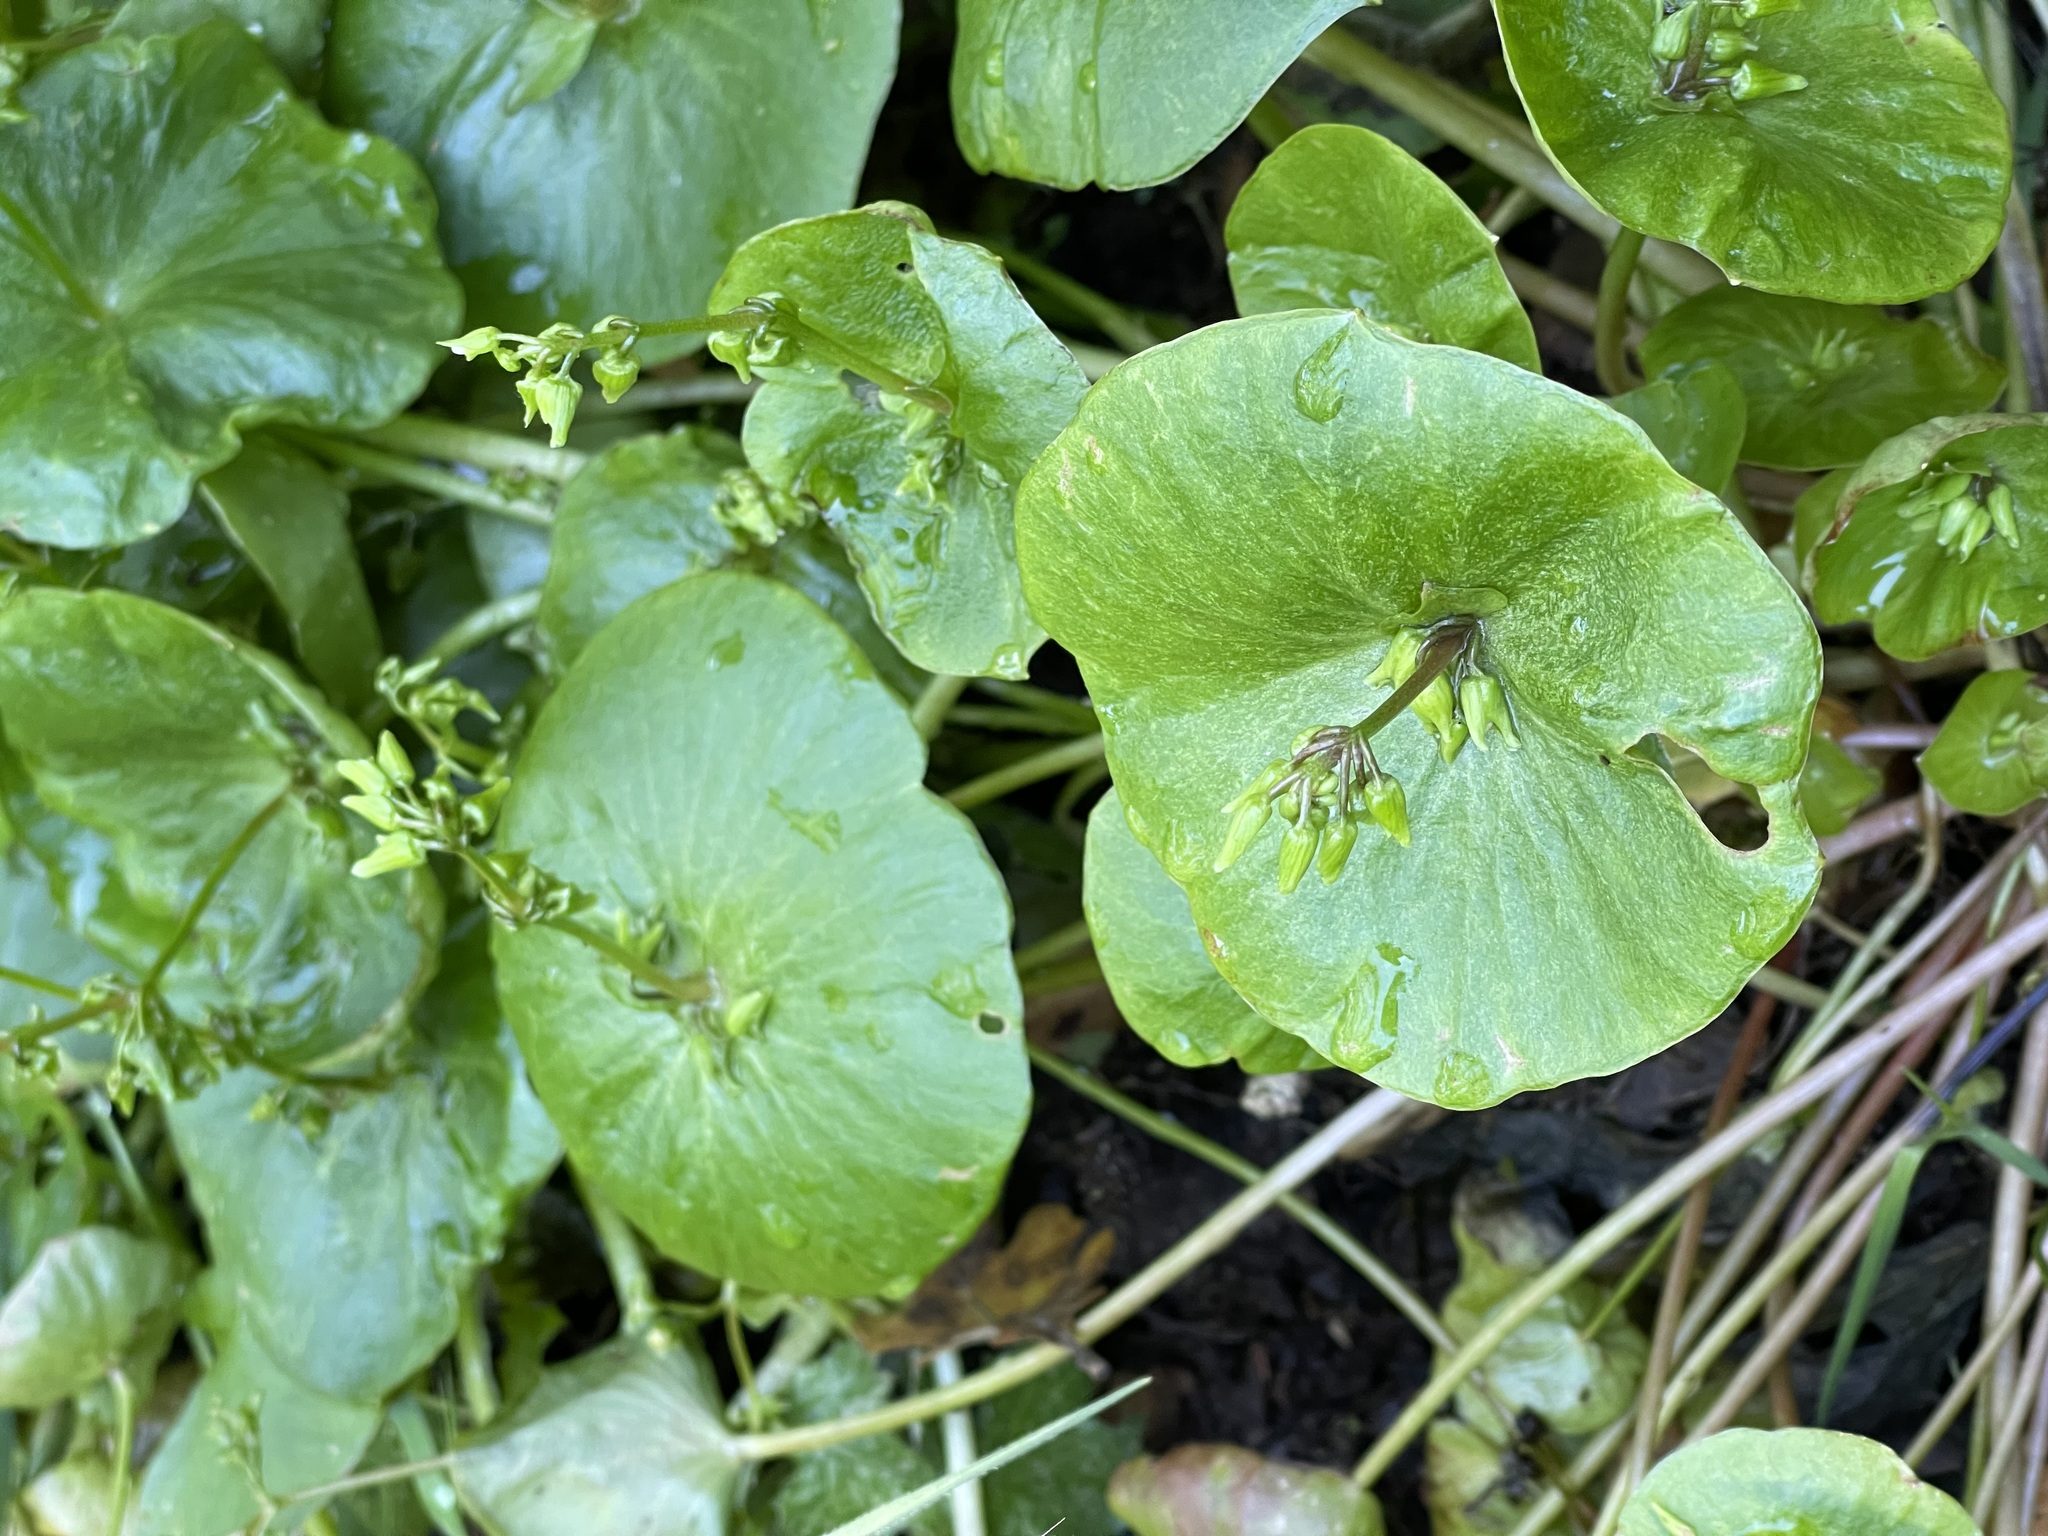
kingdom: Plantae
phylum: Tracheophyta
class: Magnoliopsida
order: Caryophyllales
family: Montiaceae
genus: Claytonia
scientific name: Claytonia perfoliata
